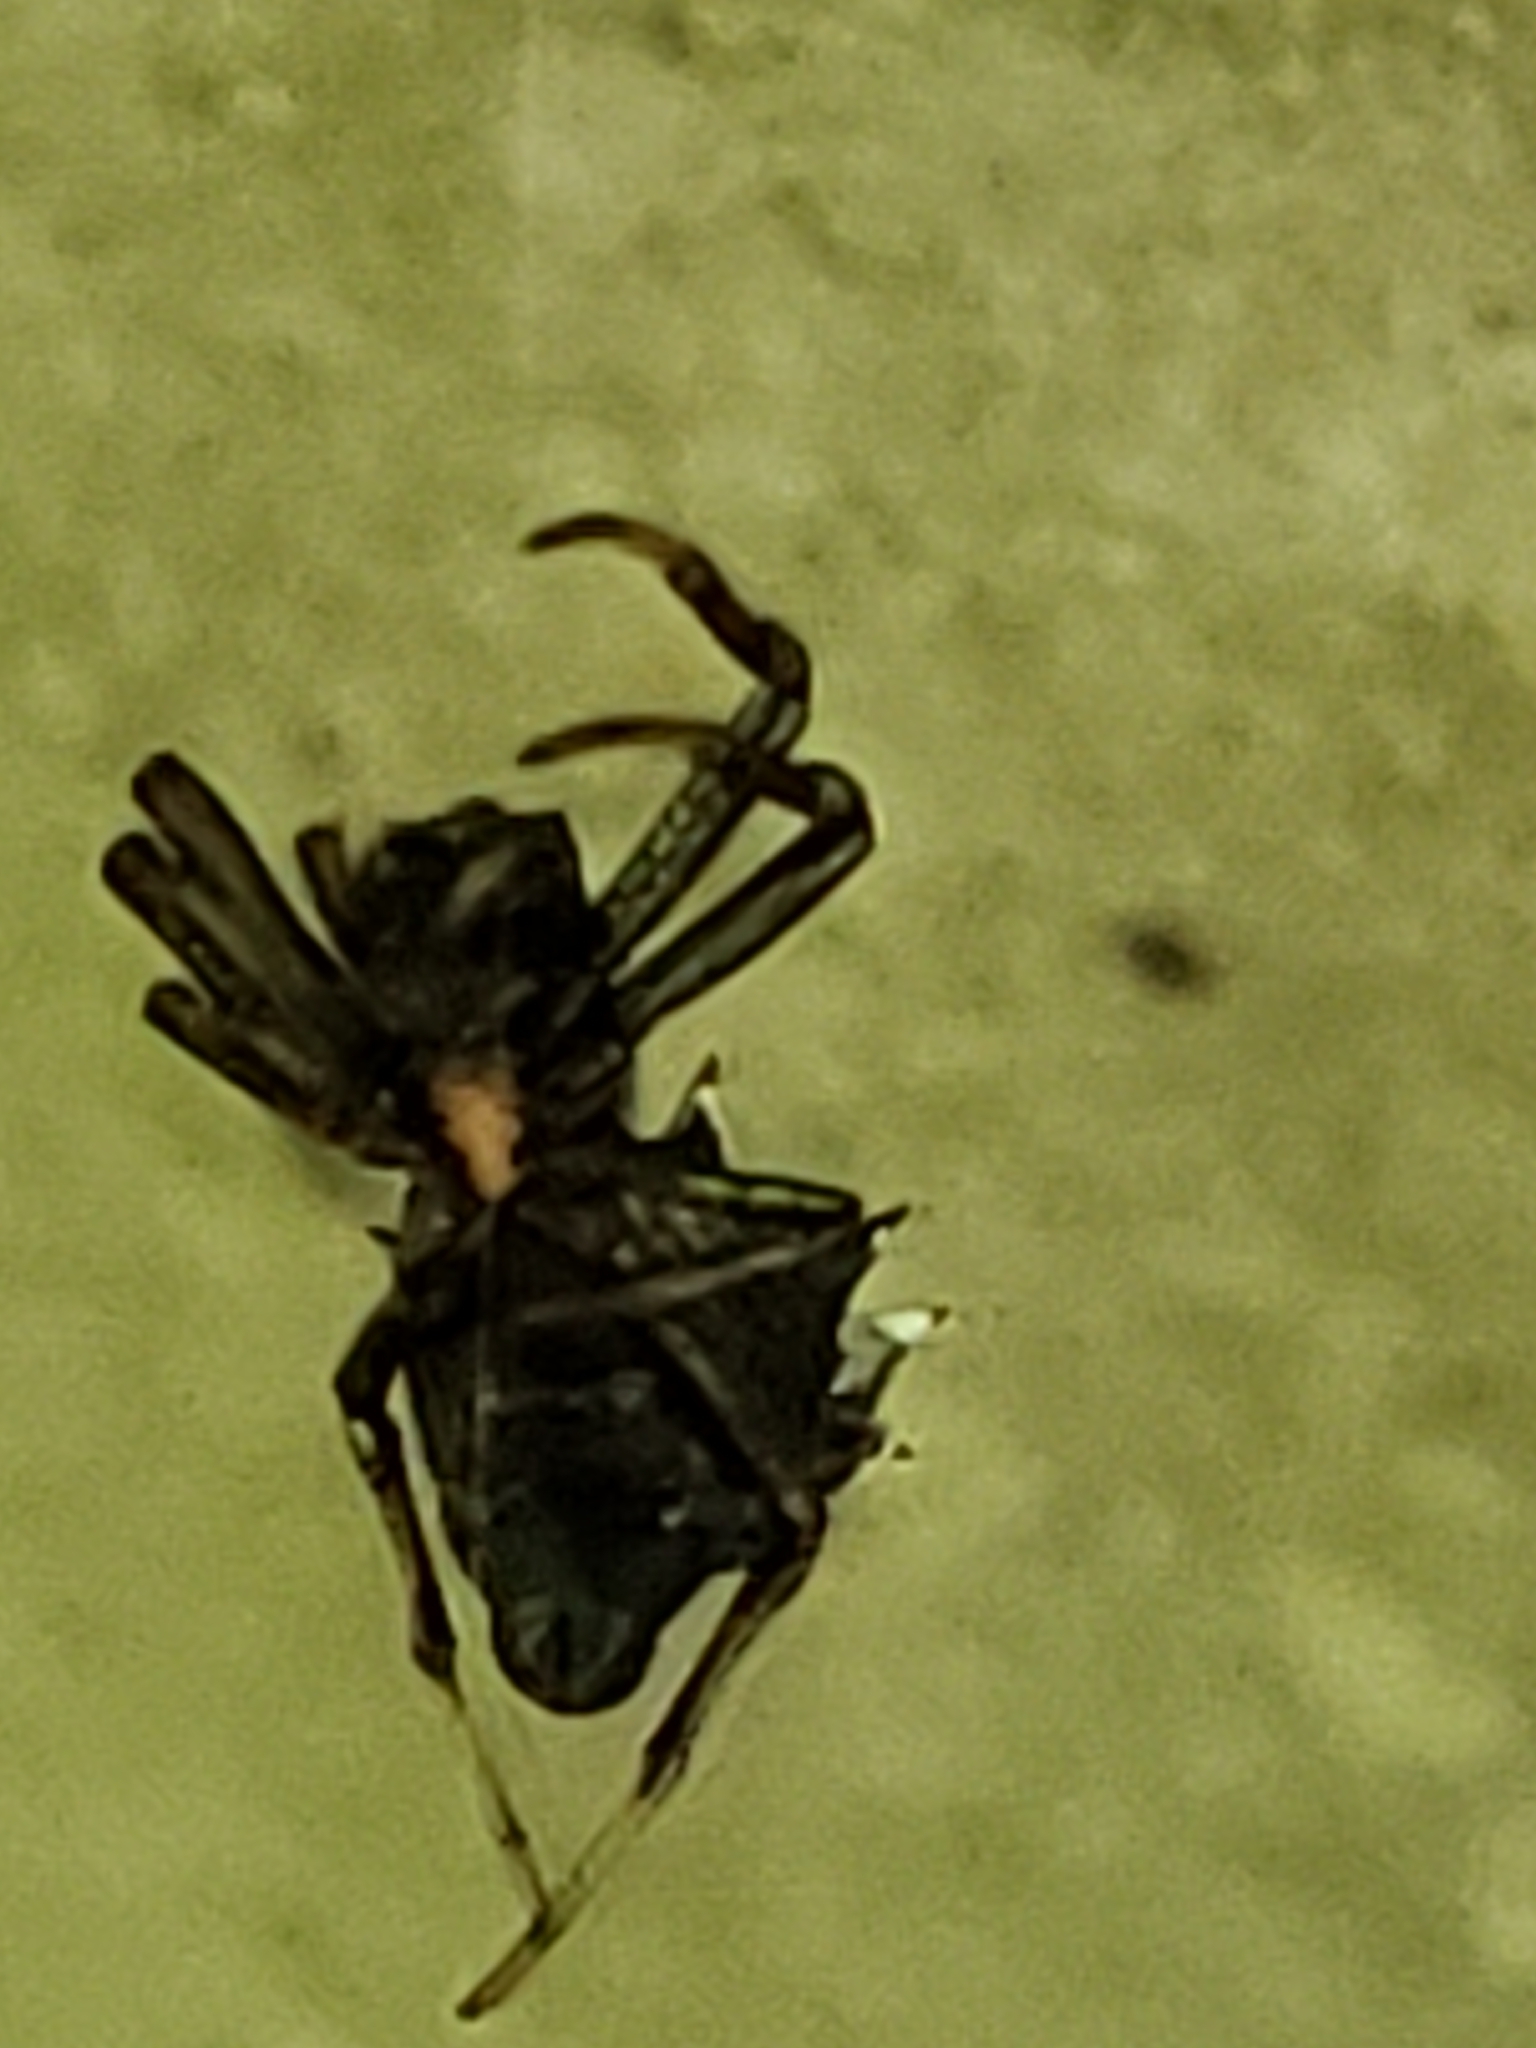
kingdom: Animalia
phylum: Arthropoda
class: Arachnida
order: Araneae
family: Araneidae
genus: Micrathena
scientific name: Micrathena gracilis
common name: Orb weavers
